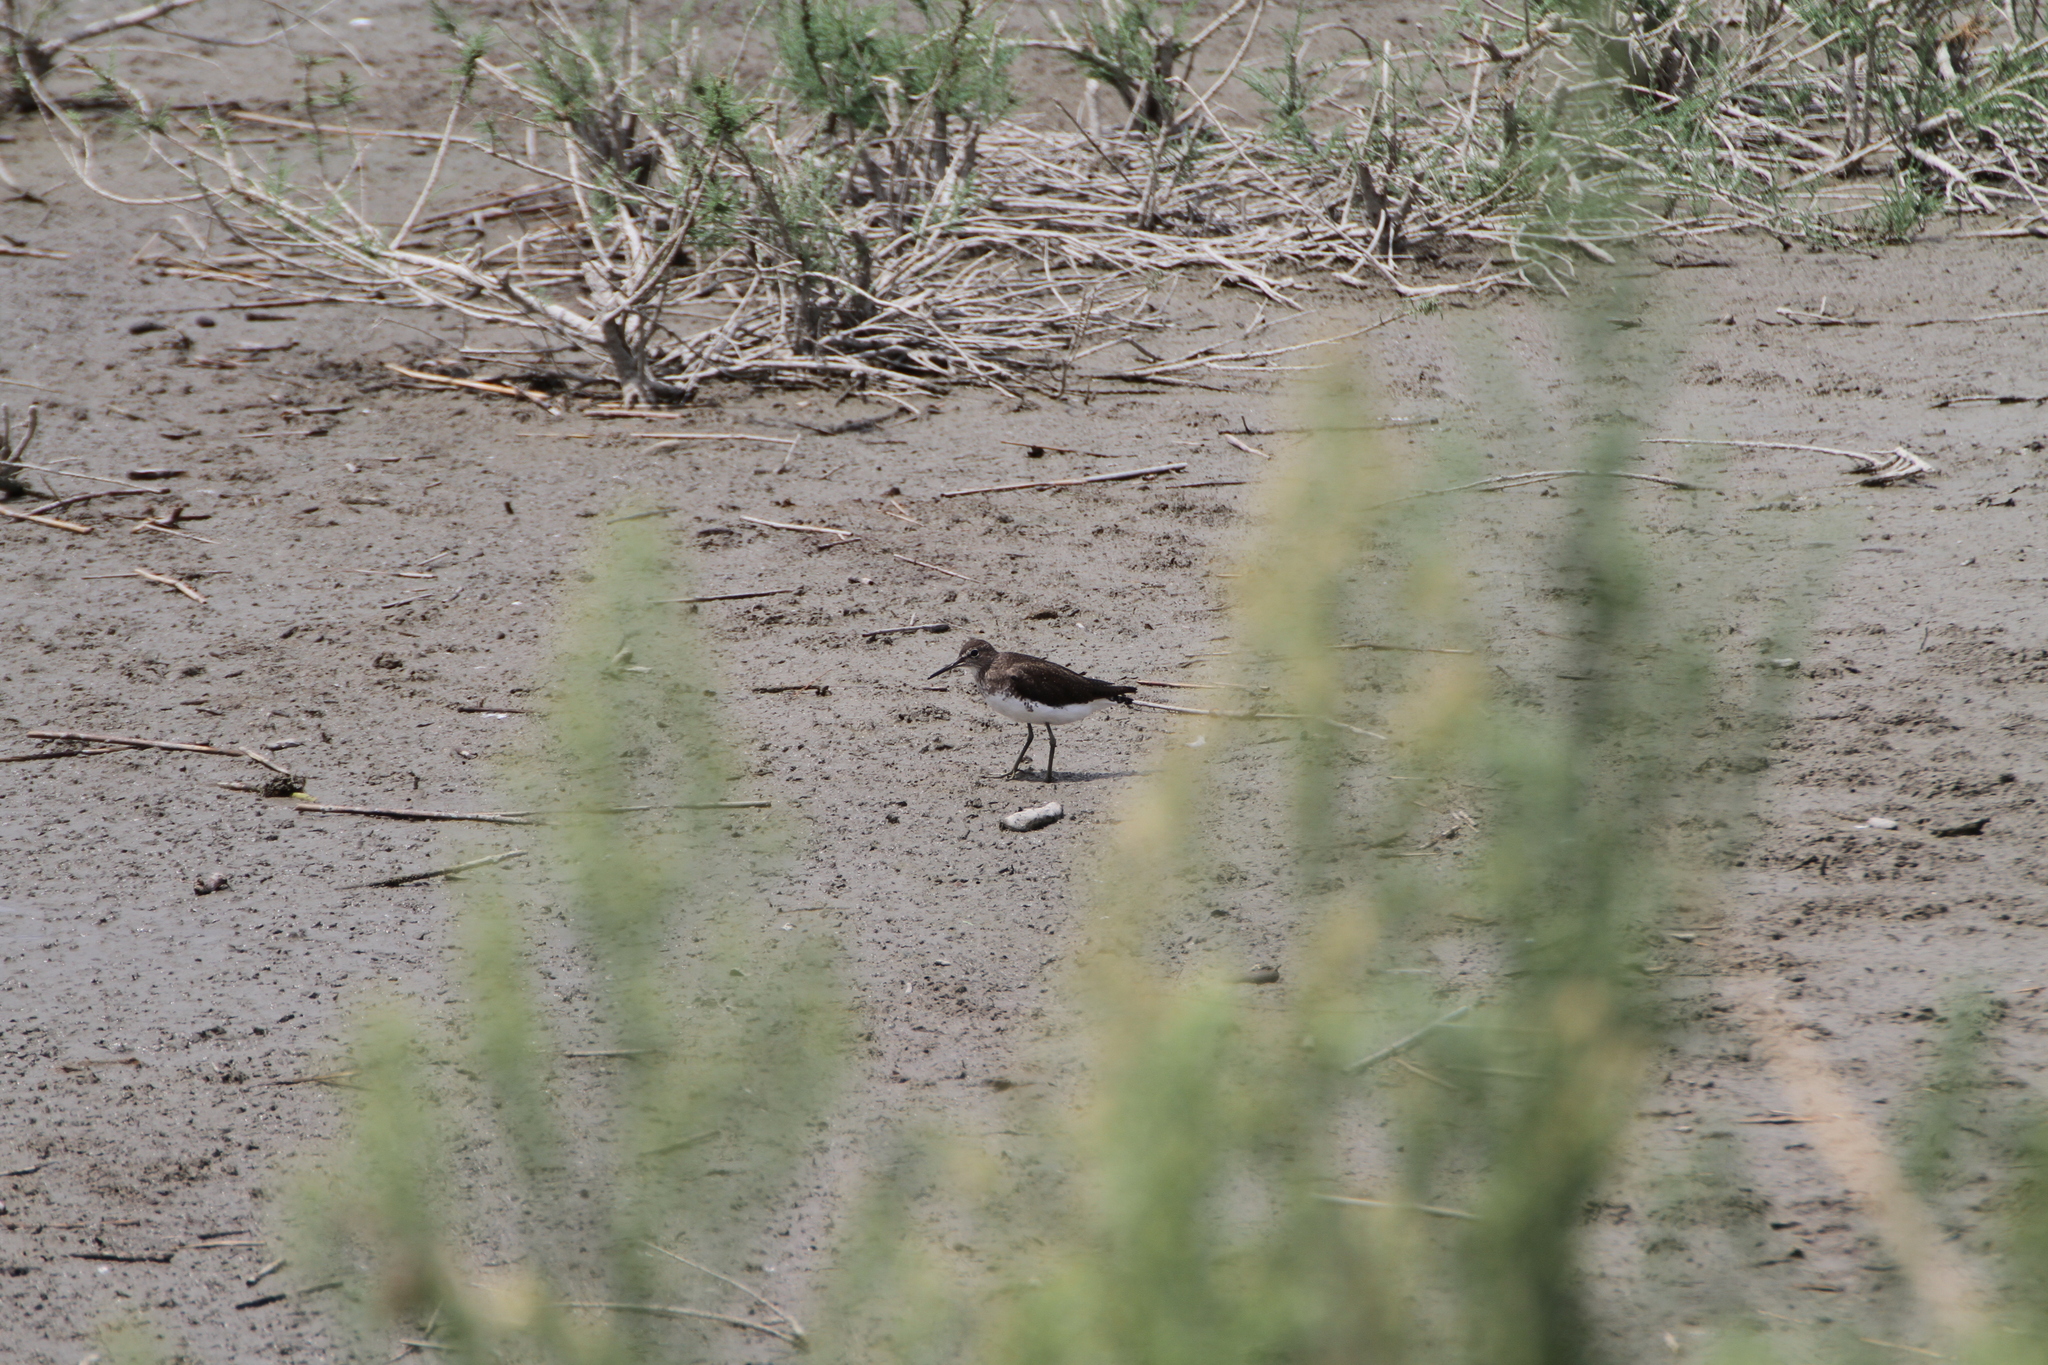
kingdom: Animalia
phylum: Chordata
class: Aves
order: Charadriiformes
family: Scolopacidae
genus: Tringa
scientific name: Tringa ochropus
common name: Green sandpiper
